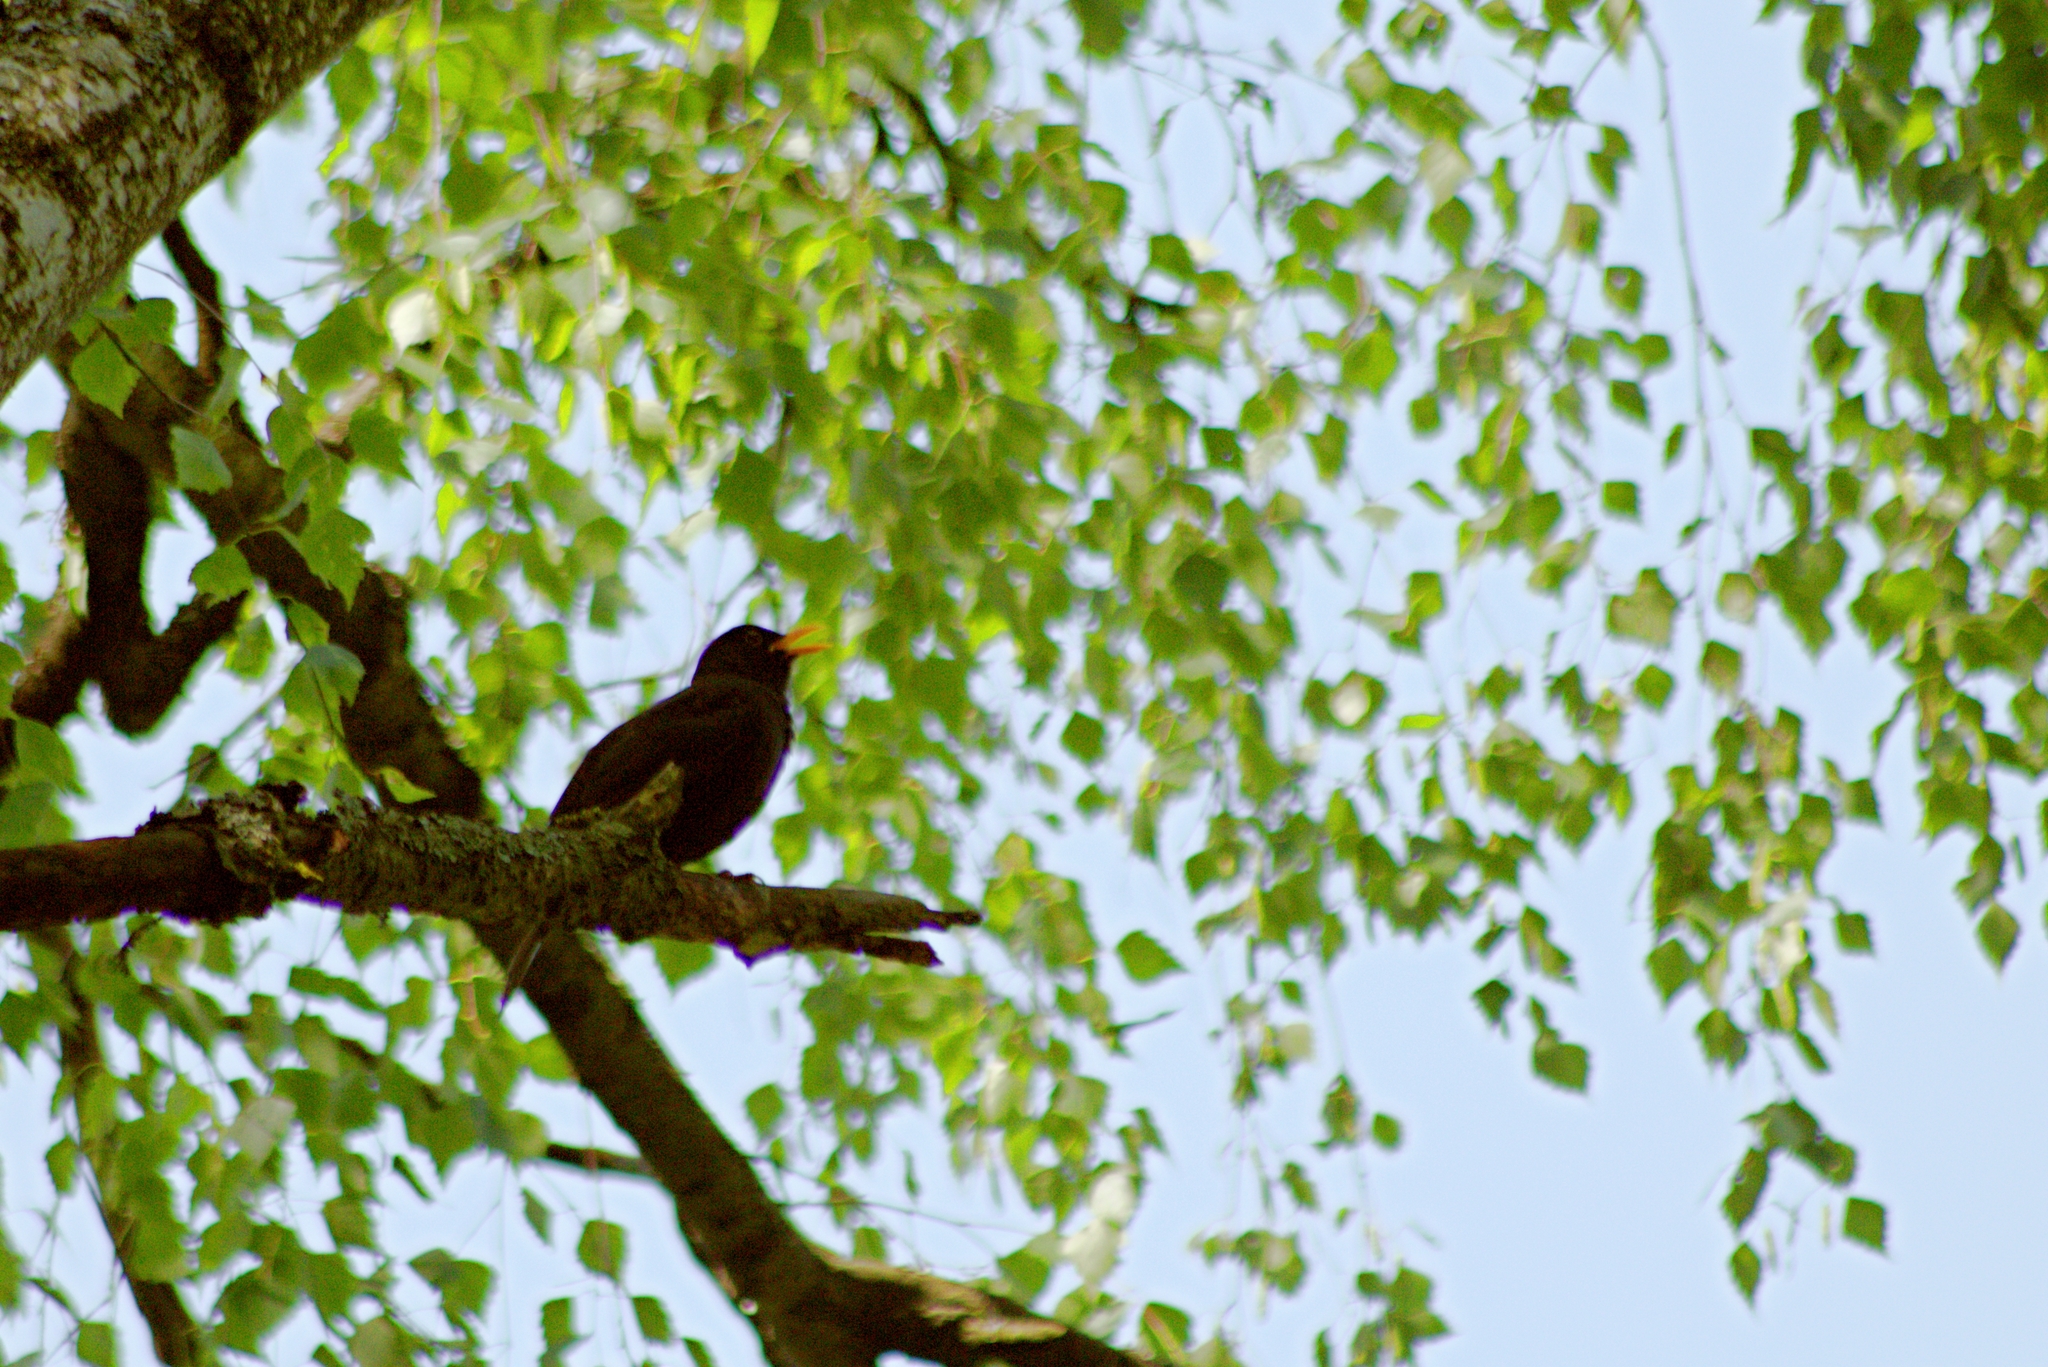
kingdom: Animalia
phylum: Chordata
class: Aves
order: Passeriformes
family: Turdidae
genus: Turdus
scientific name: Turdus merula
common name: Common blackbird
